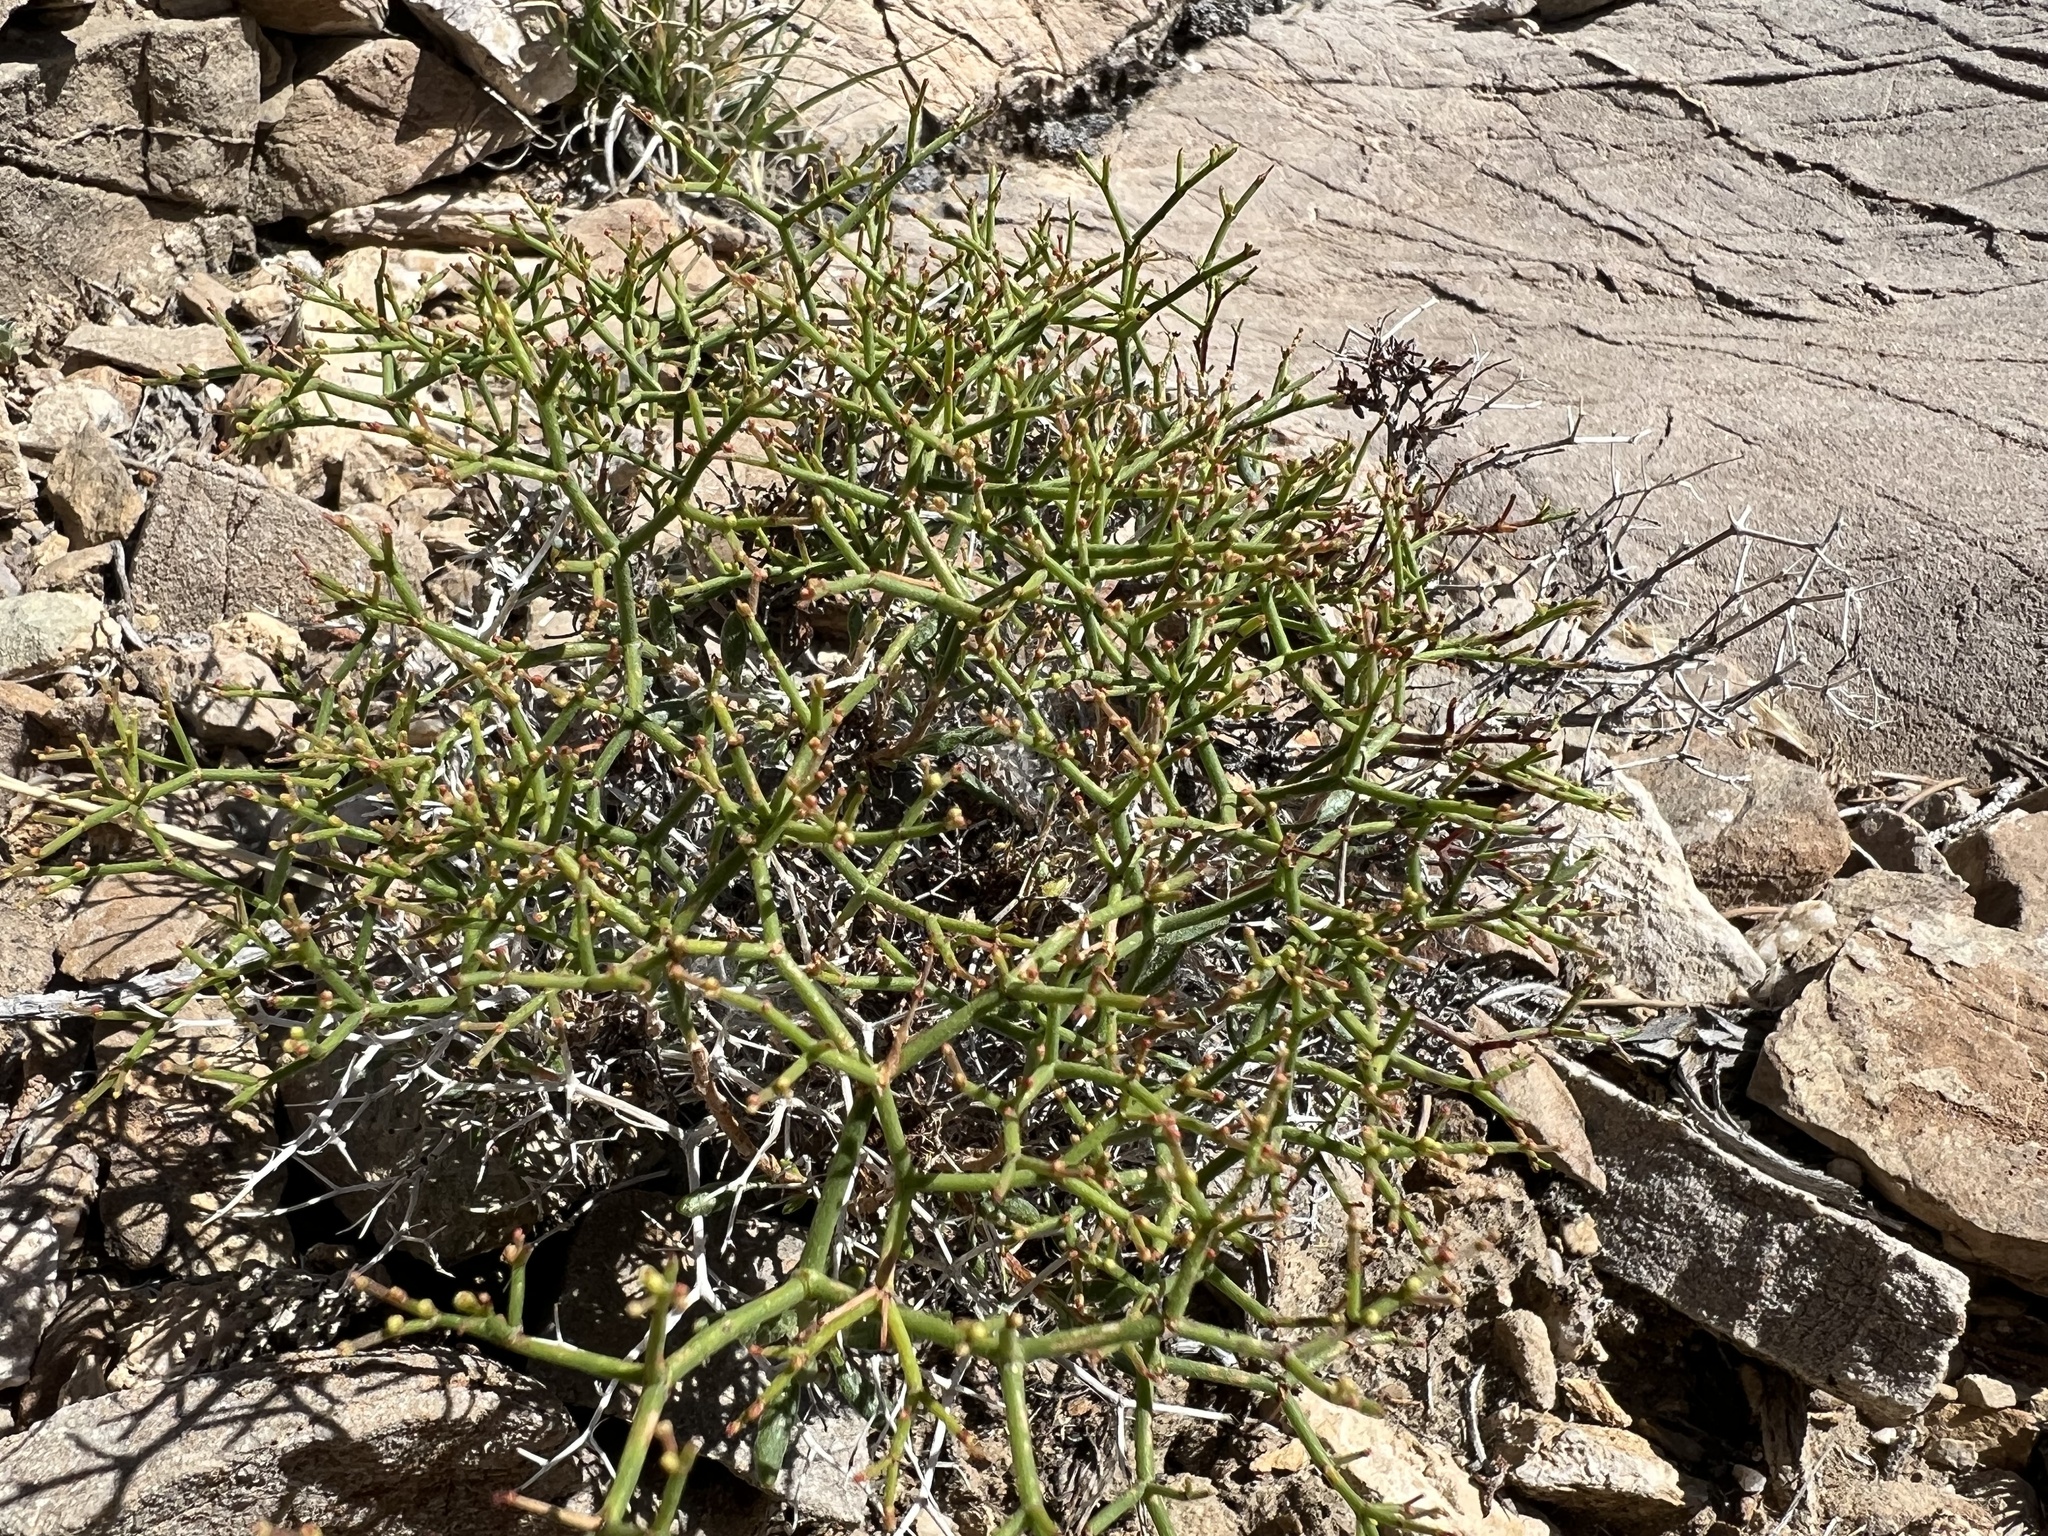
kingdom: Plantae
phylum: Tracheophyta
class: Magnoliopsida
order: Caryophyllales
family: Polygonaceae
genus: Eriogonum
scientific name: Eriogonum heermannii
